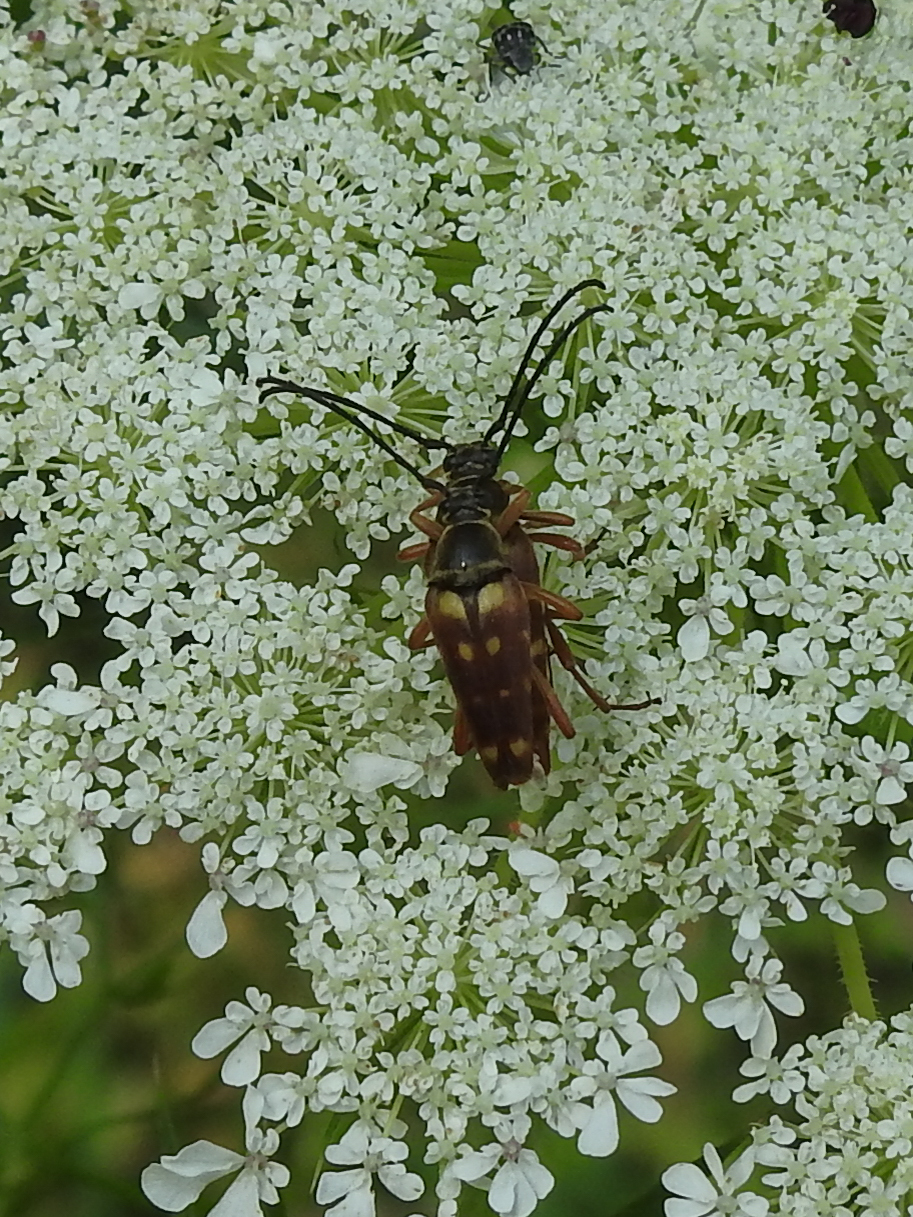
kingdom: Animalia
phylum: Arthropoda
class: Insecta
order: Coleoptera
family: Cerambycidae
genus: Typocerus
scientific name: Typocerus velutinus
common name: Banded longhorn beetle
